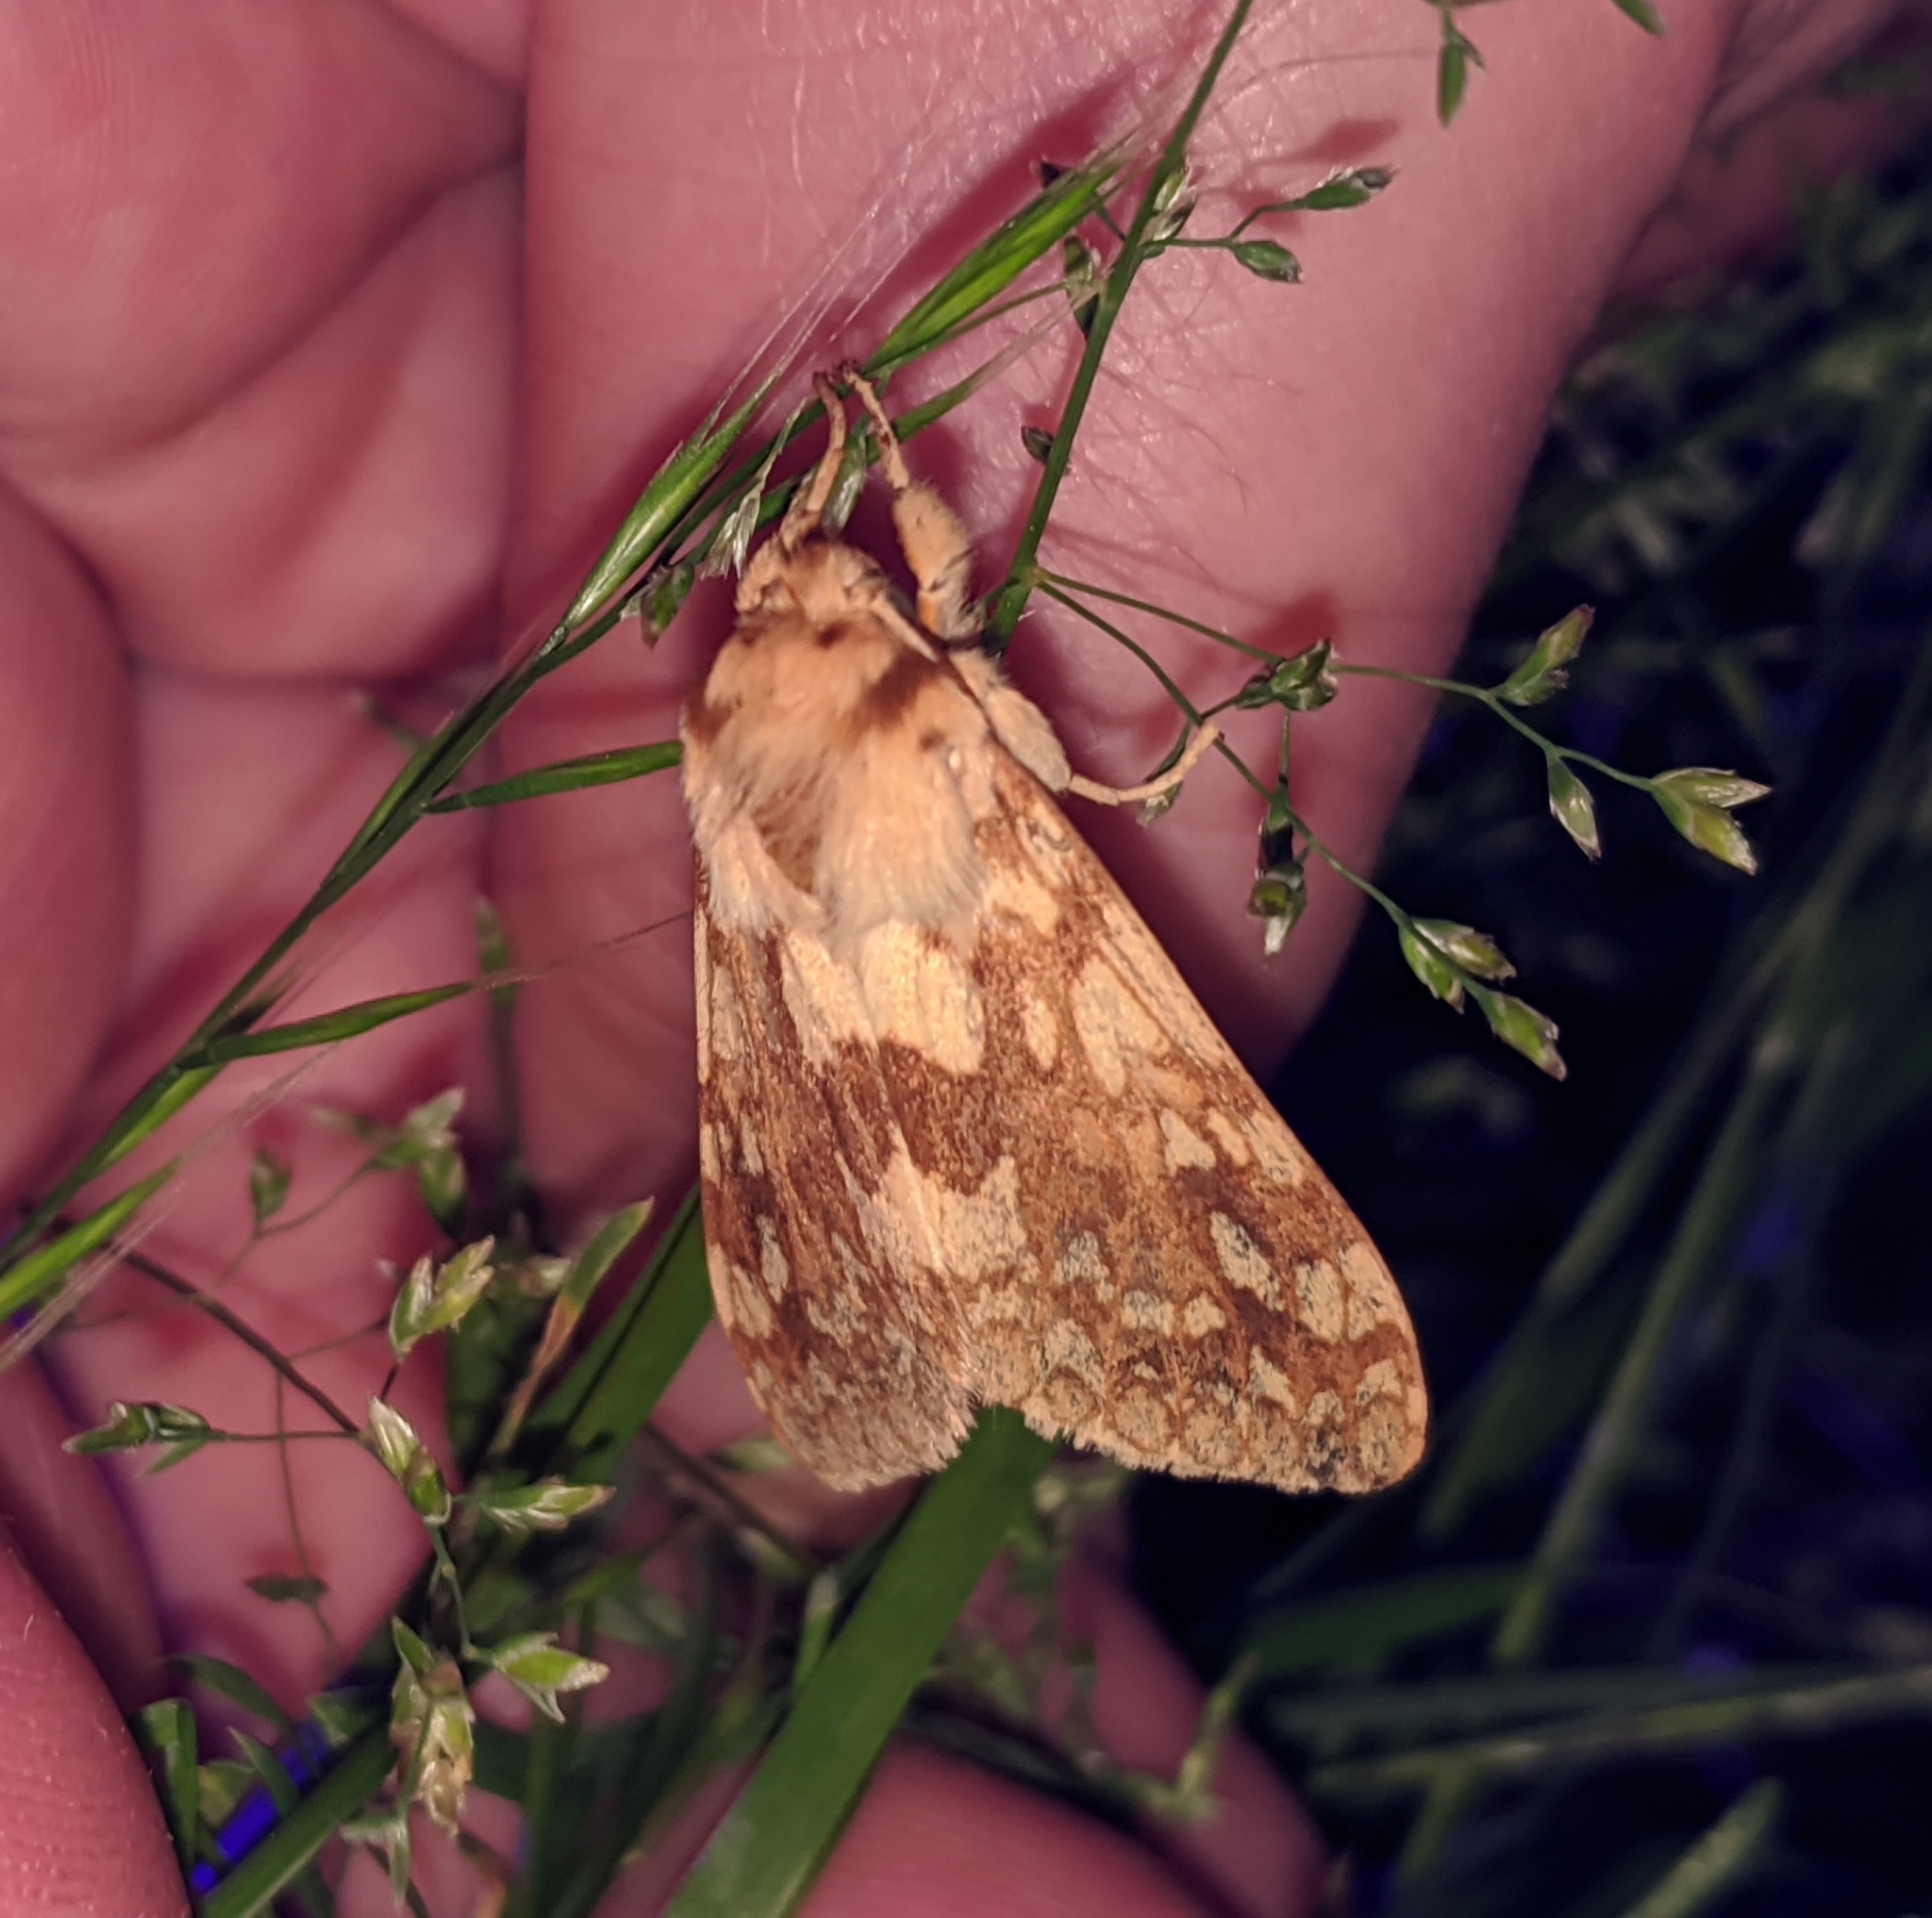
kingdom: Animalia
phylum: Arthropoda
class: Insecta
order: Lepidoptera
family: Erebidae
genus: Lophocampa
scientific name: Lophocampa maculata
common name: Spotted tussock moth
